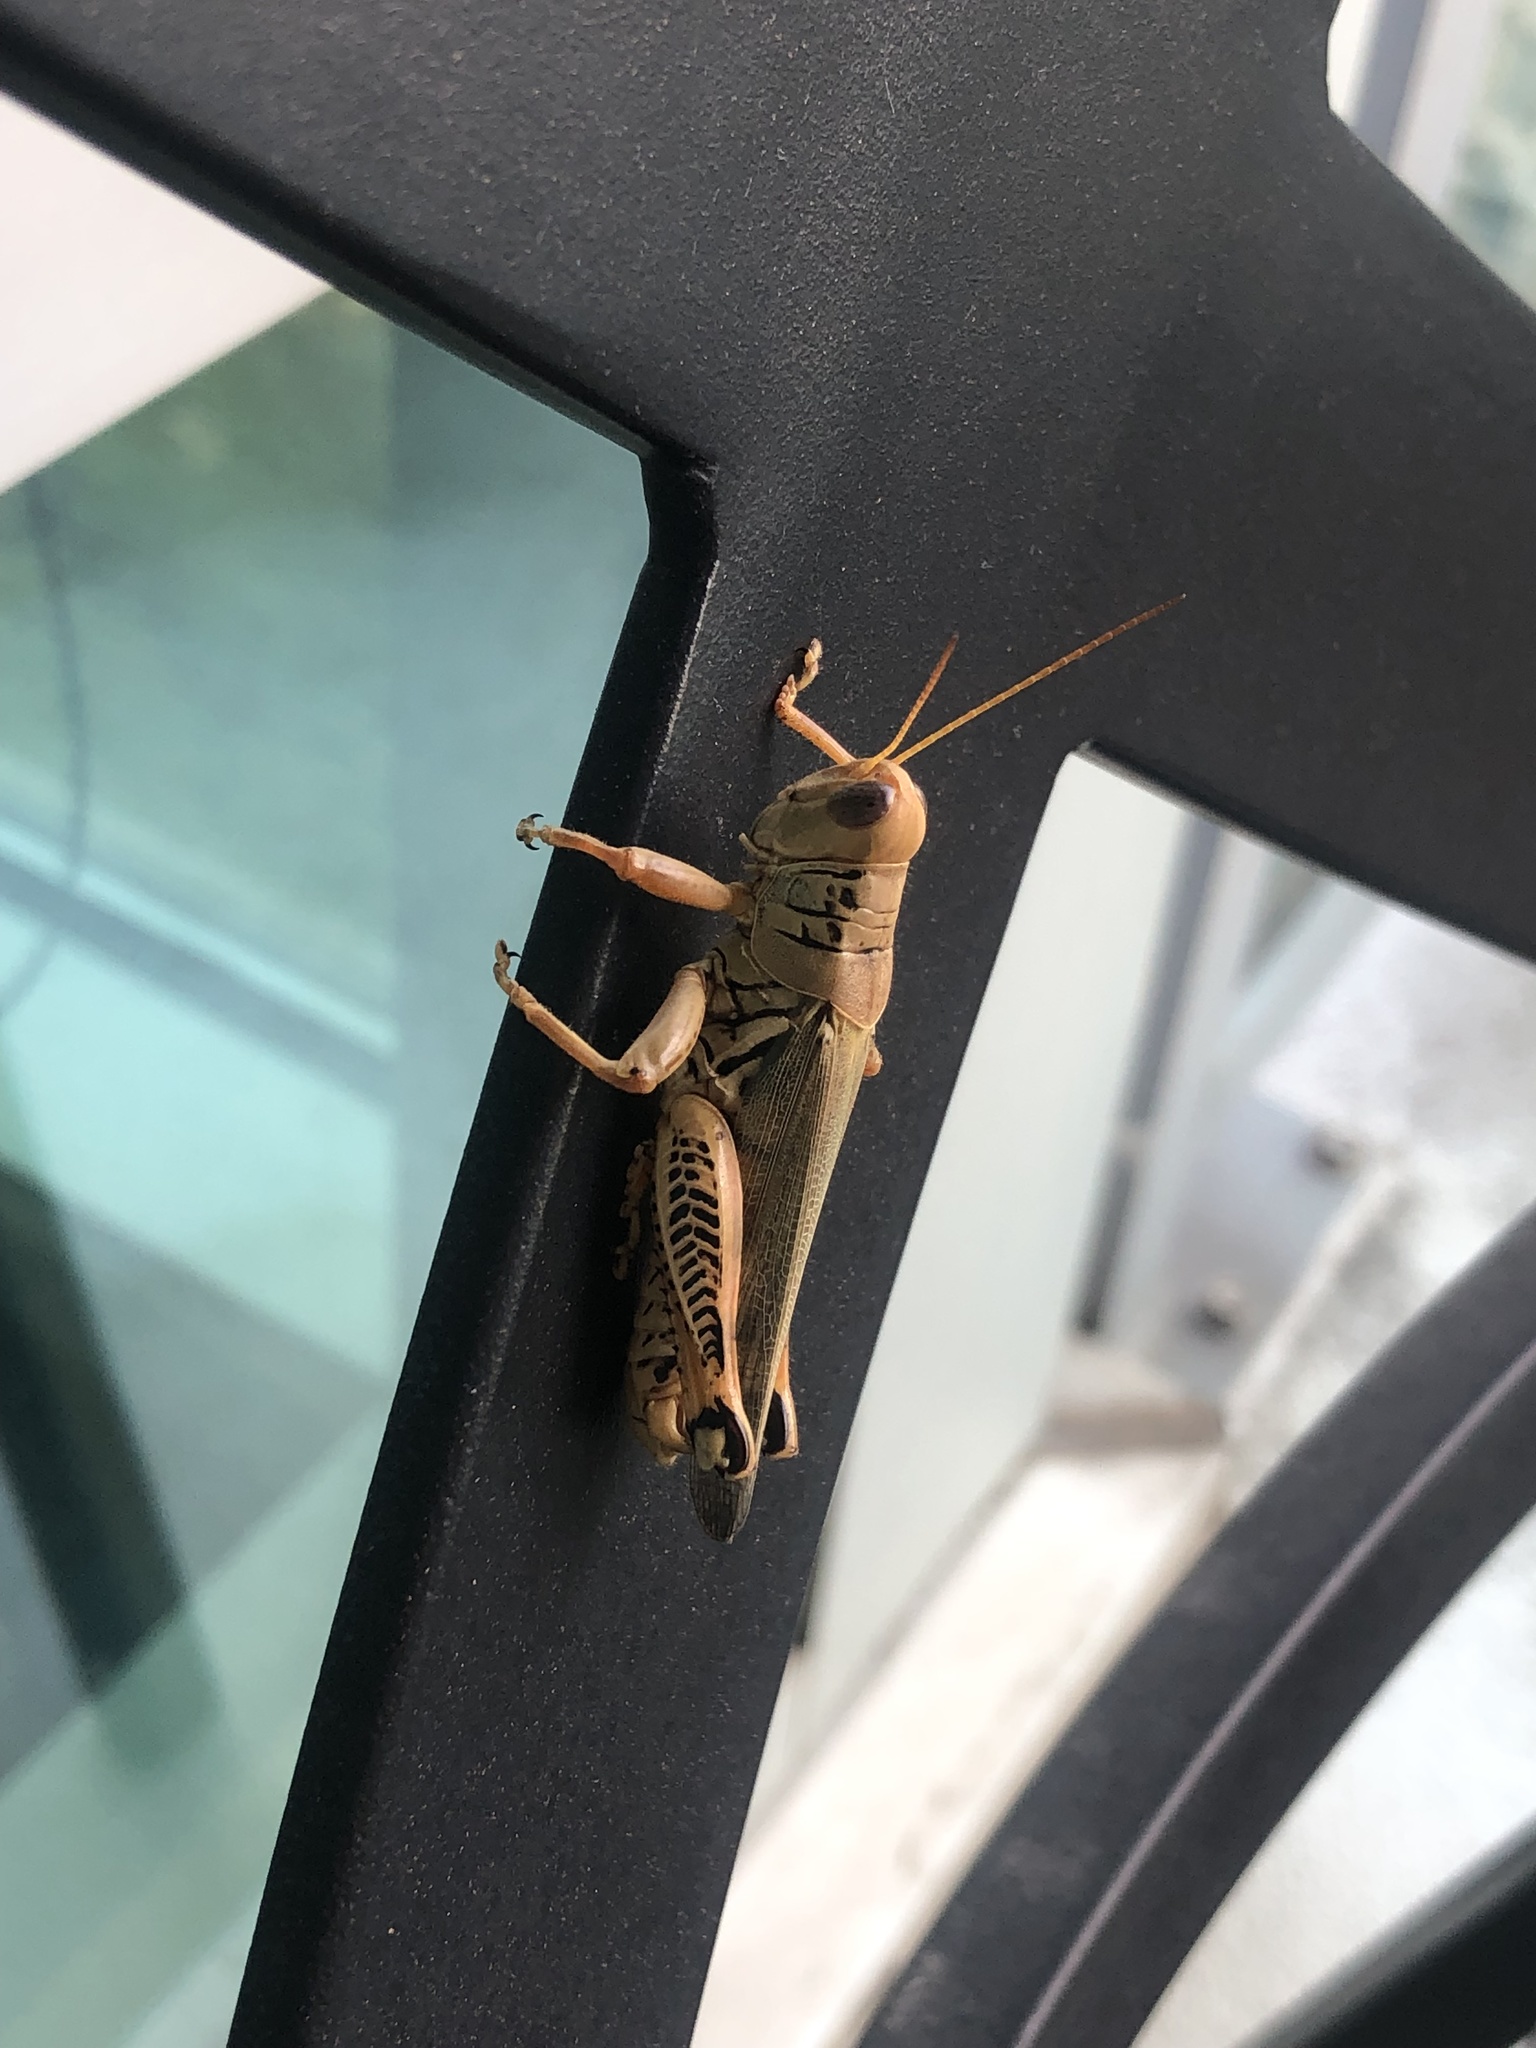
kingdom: Animalia
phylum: Arthropoda
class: Insecta
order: Orthoptera
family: Acrididae
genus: Melanoplus
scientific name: Melanoplus differentialis
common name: Differential grasshopper
